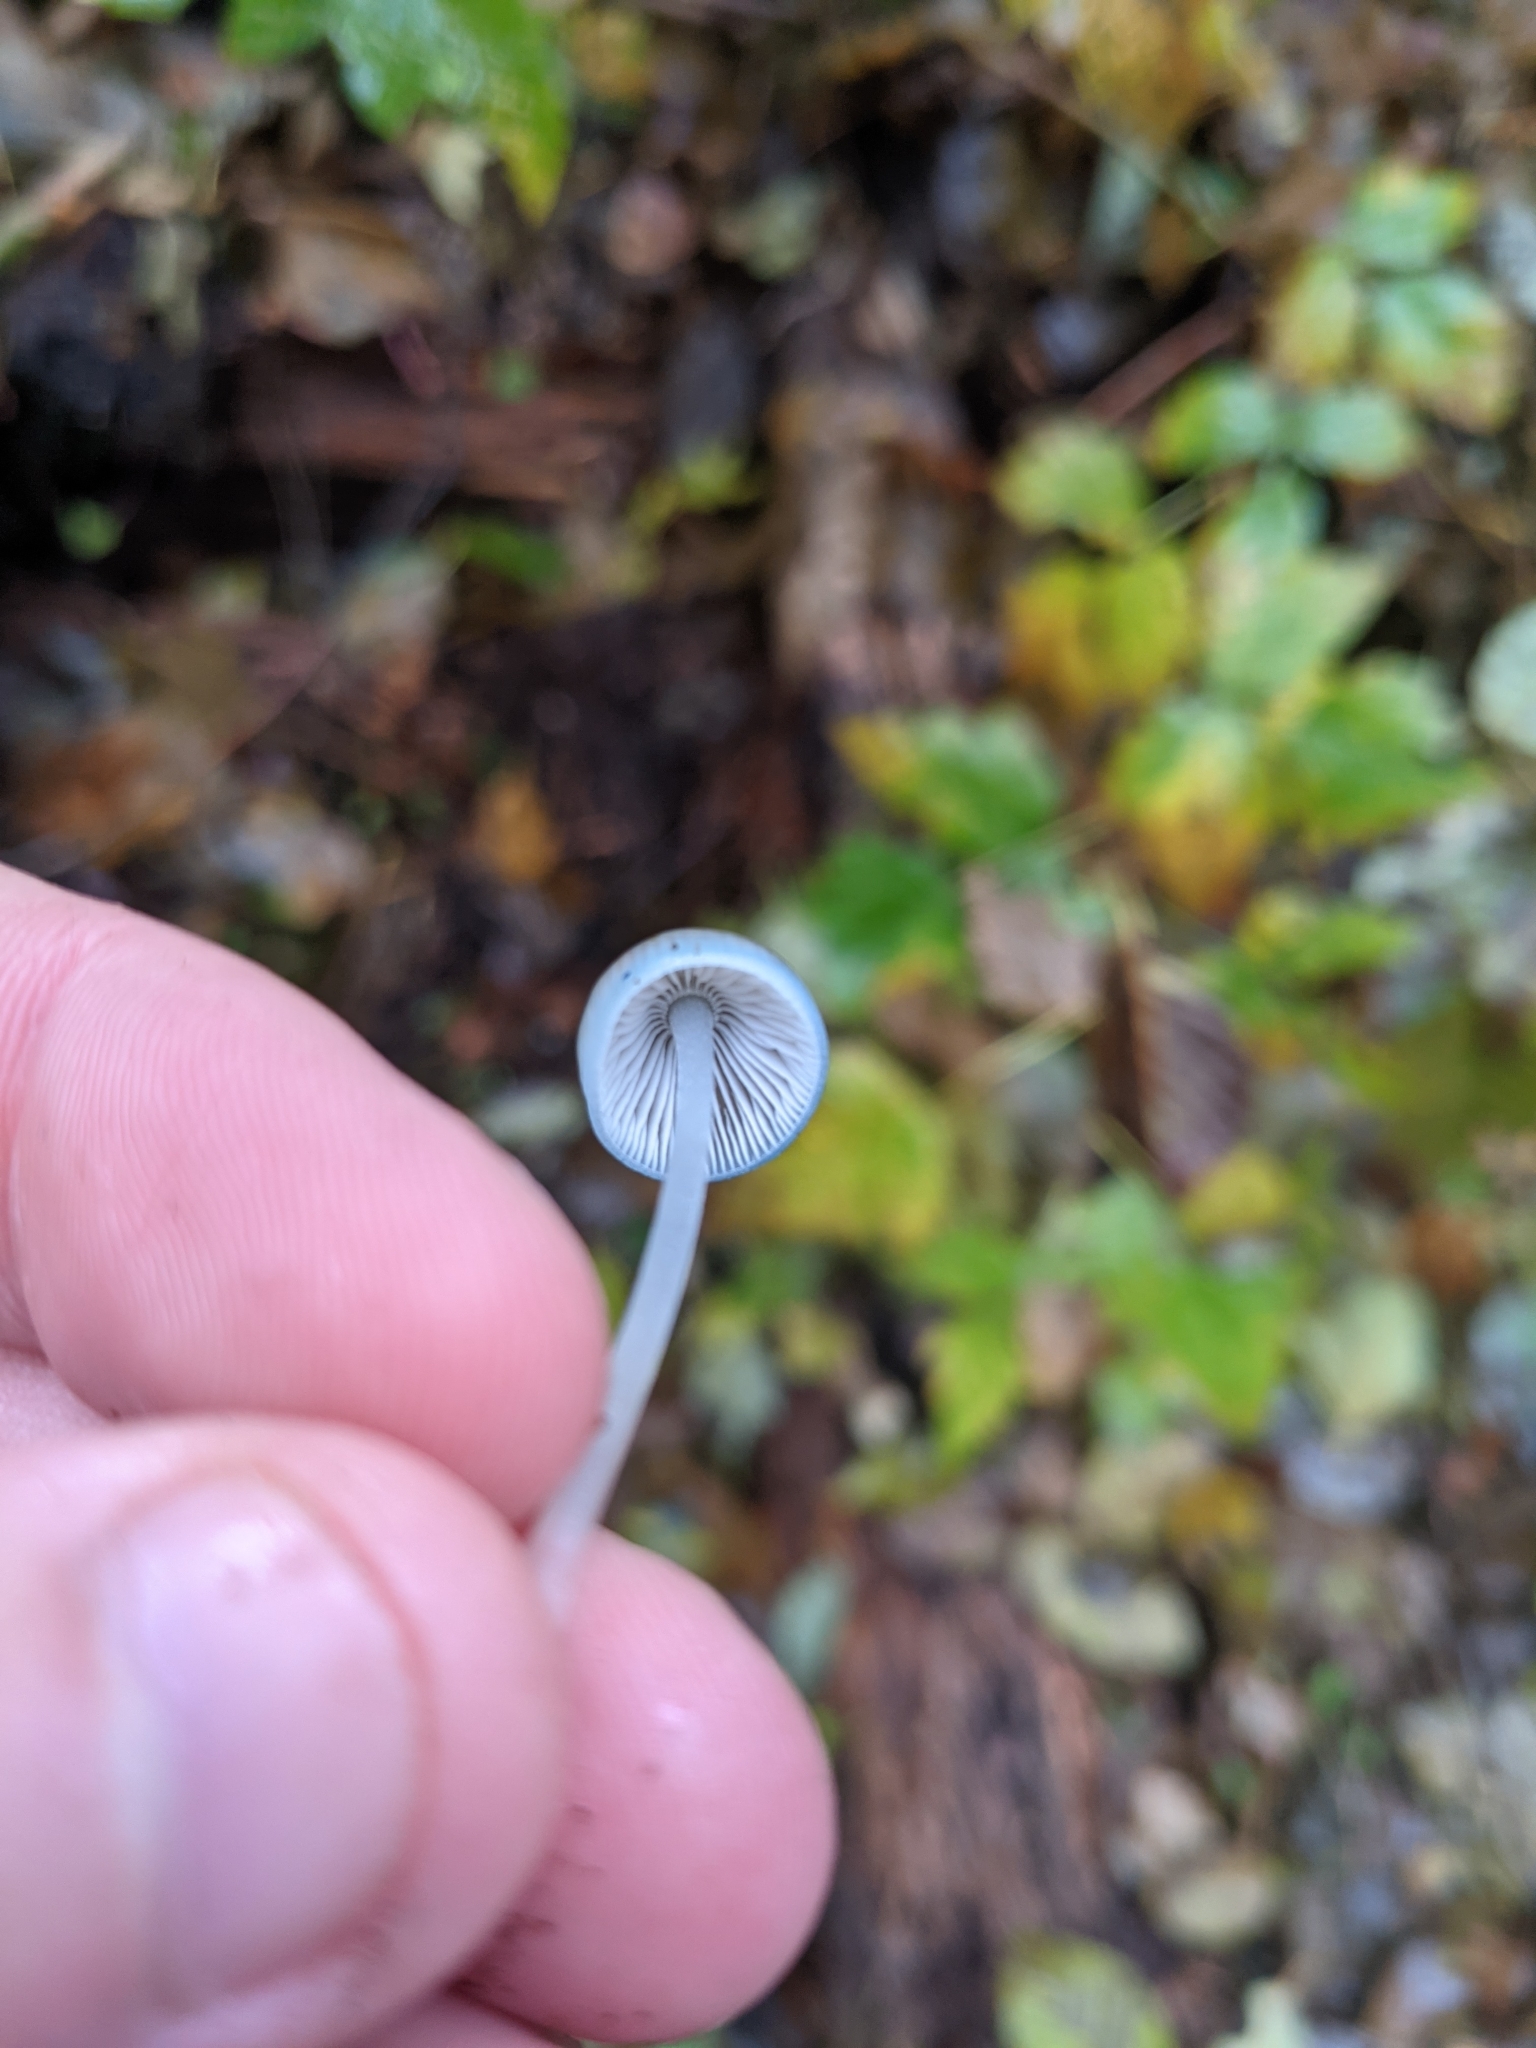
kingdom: Fungi
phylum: Basidiomycota
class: Agaricomycetes
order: Agaricales
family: Mycenaceae
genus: Mycena
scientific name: Mycena amicta
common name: Coldfoot bonnet
